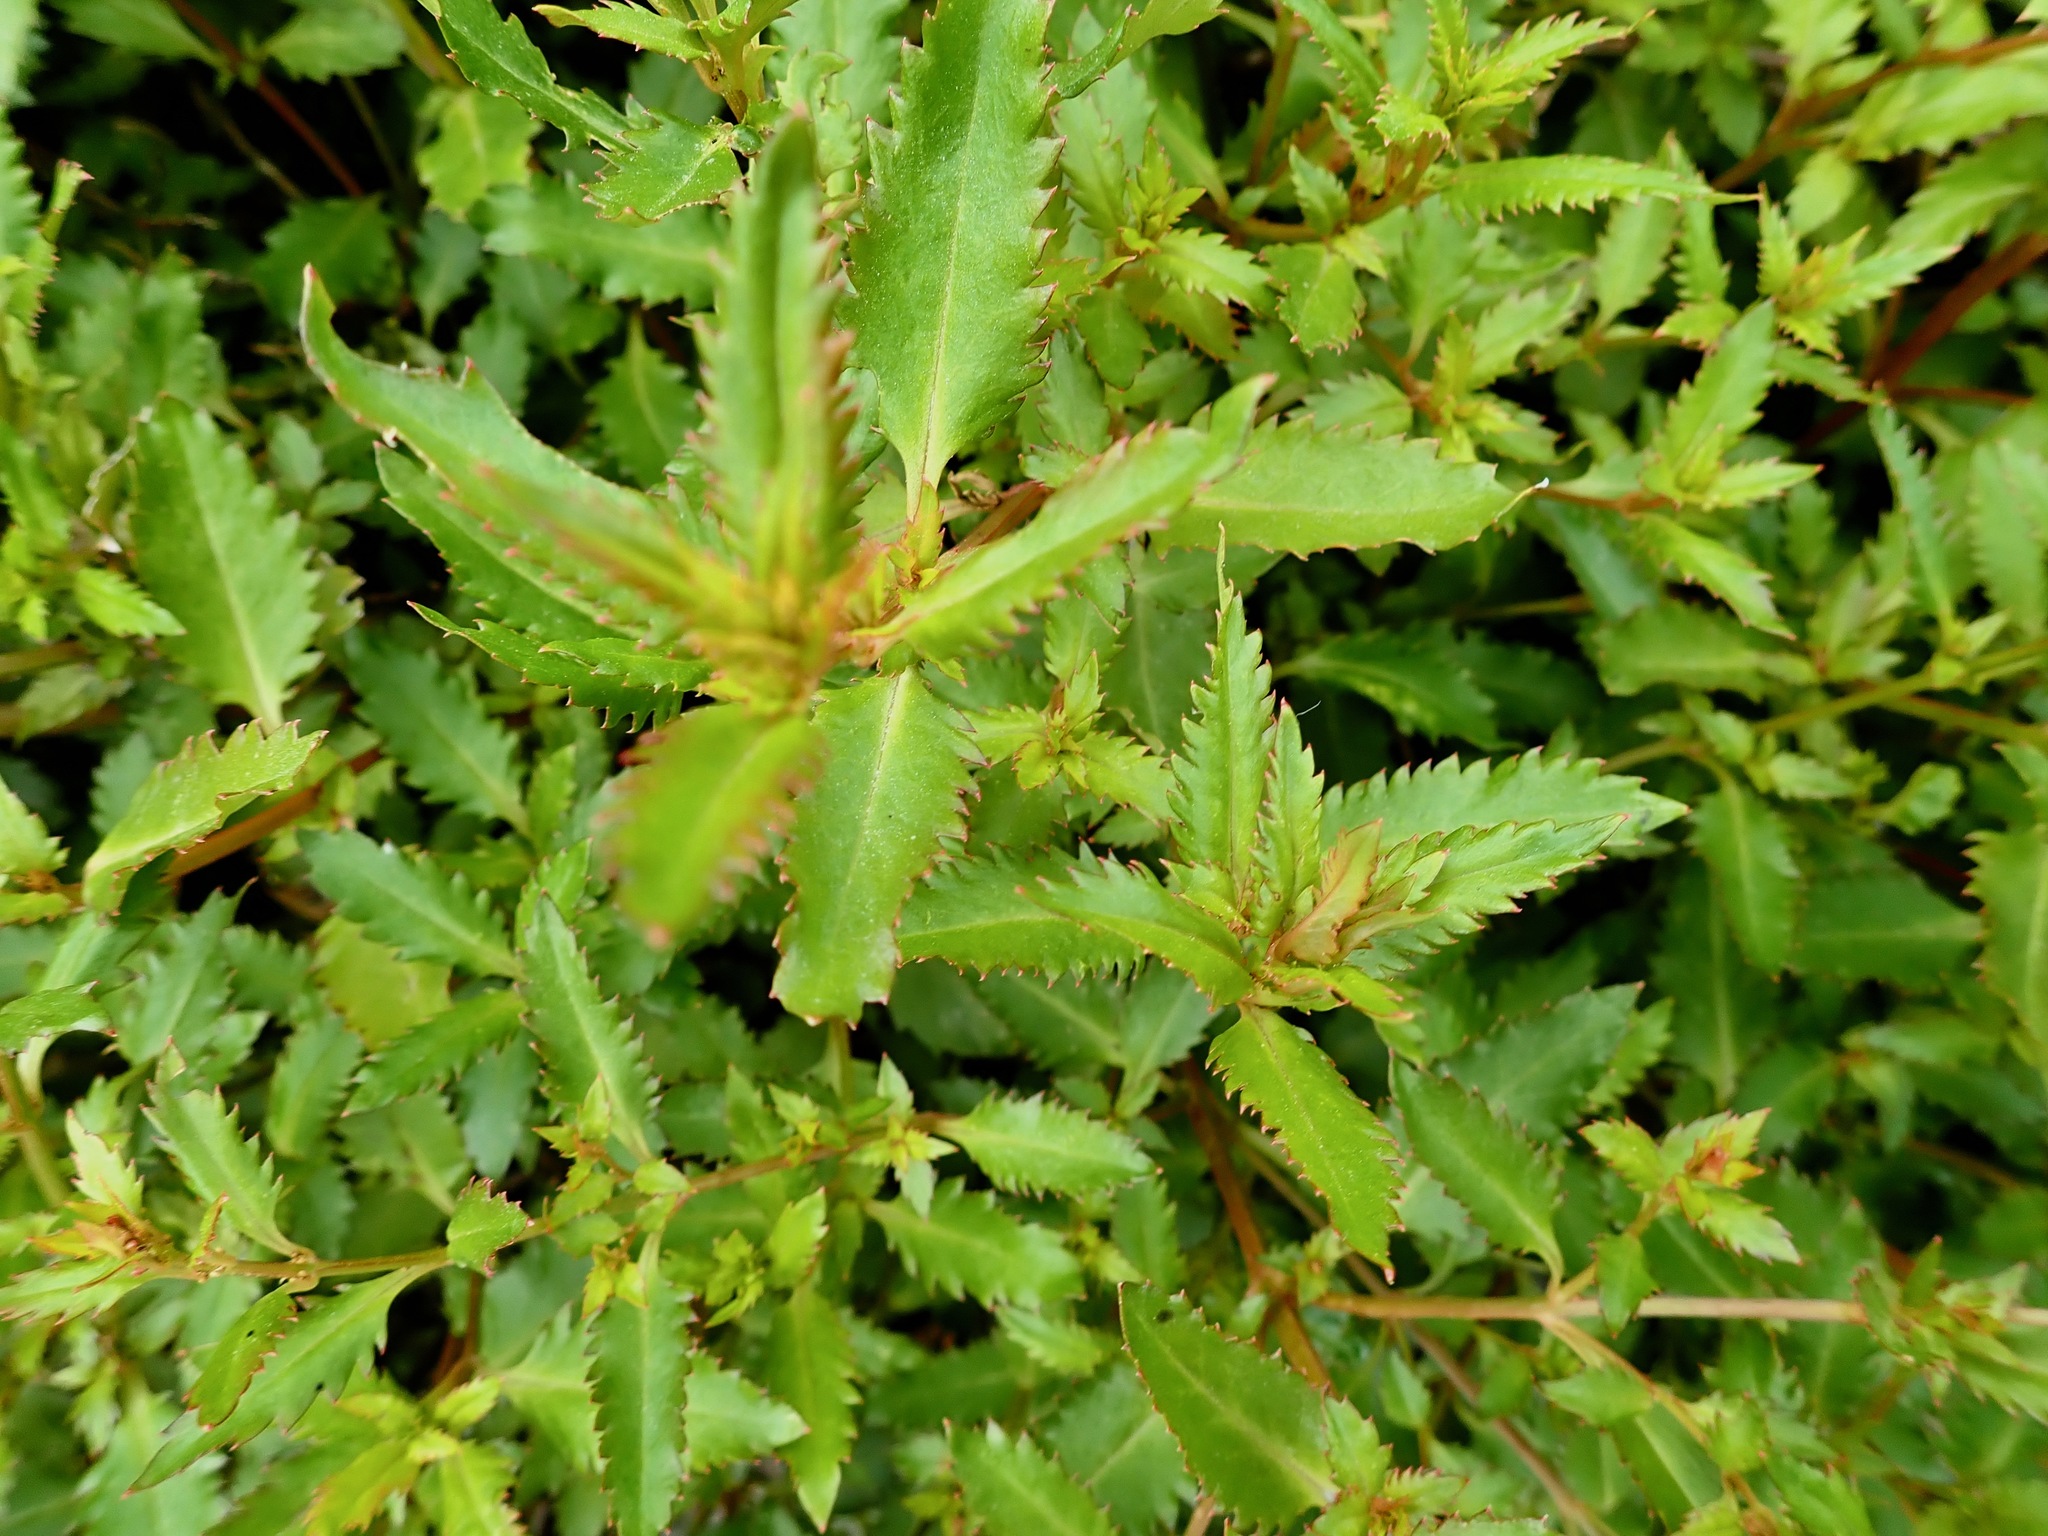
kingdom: Plantae
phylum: Tracheophyta
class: Magnoliopsida
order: Saxifragales
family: Haloragaceae
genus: Haloragis
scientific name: Haloragis erecta
